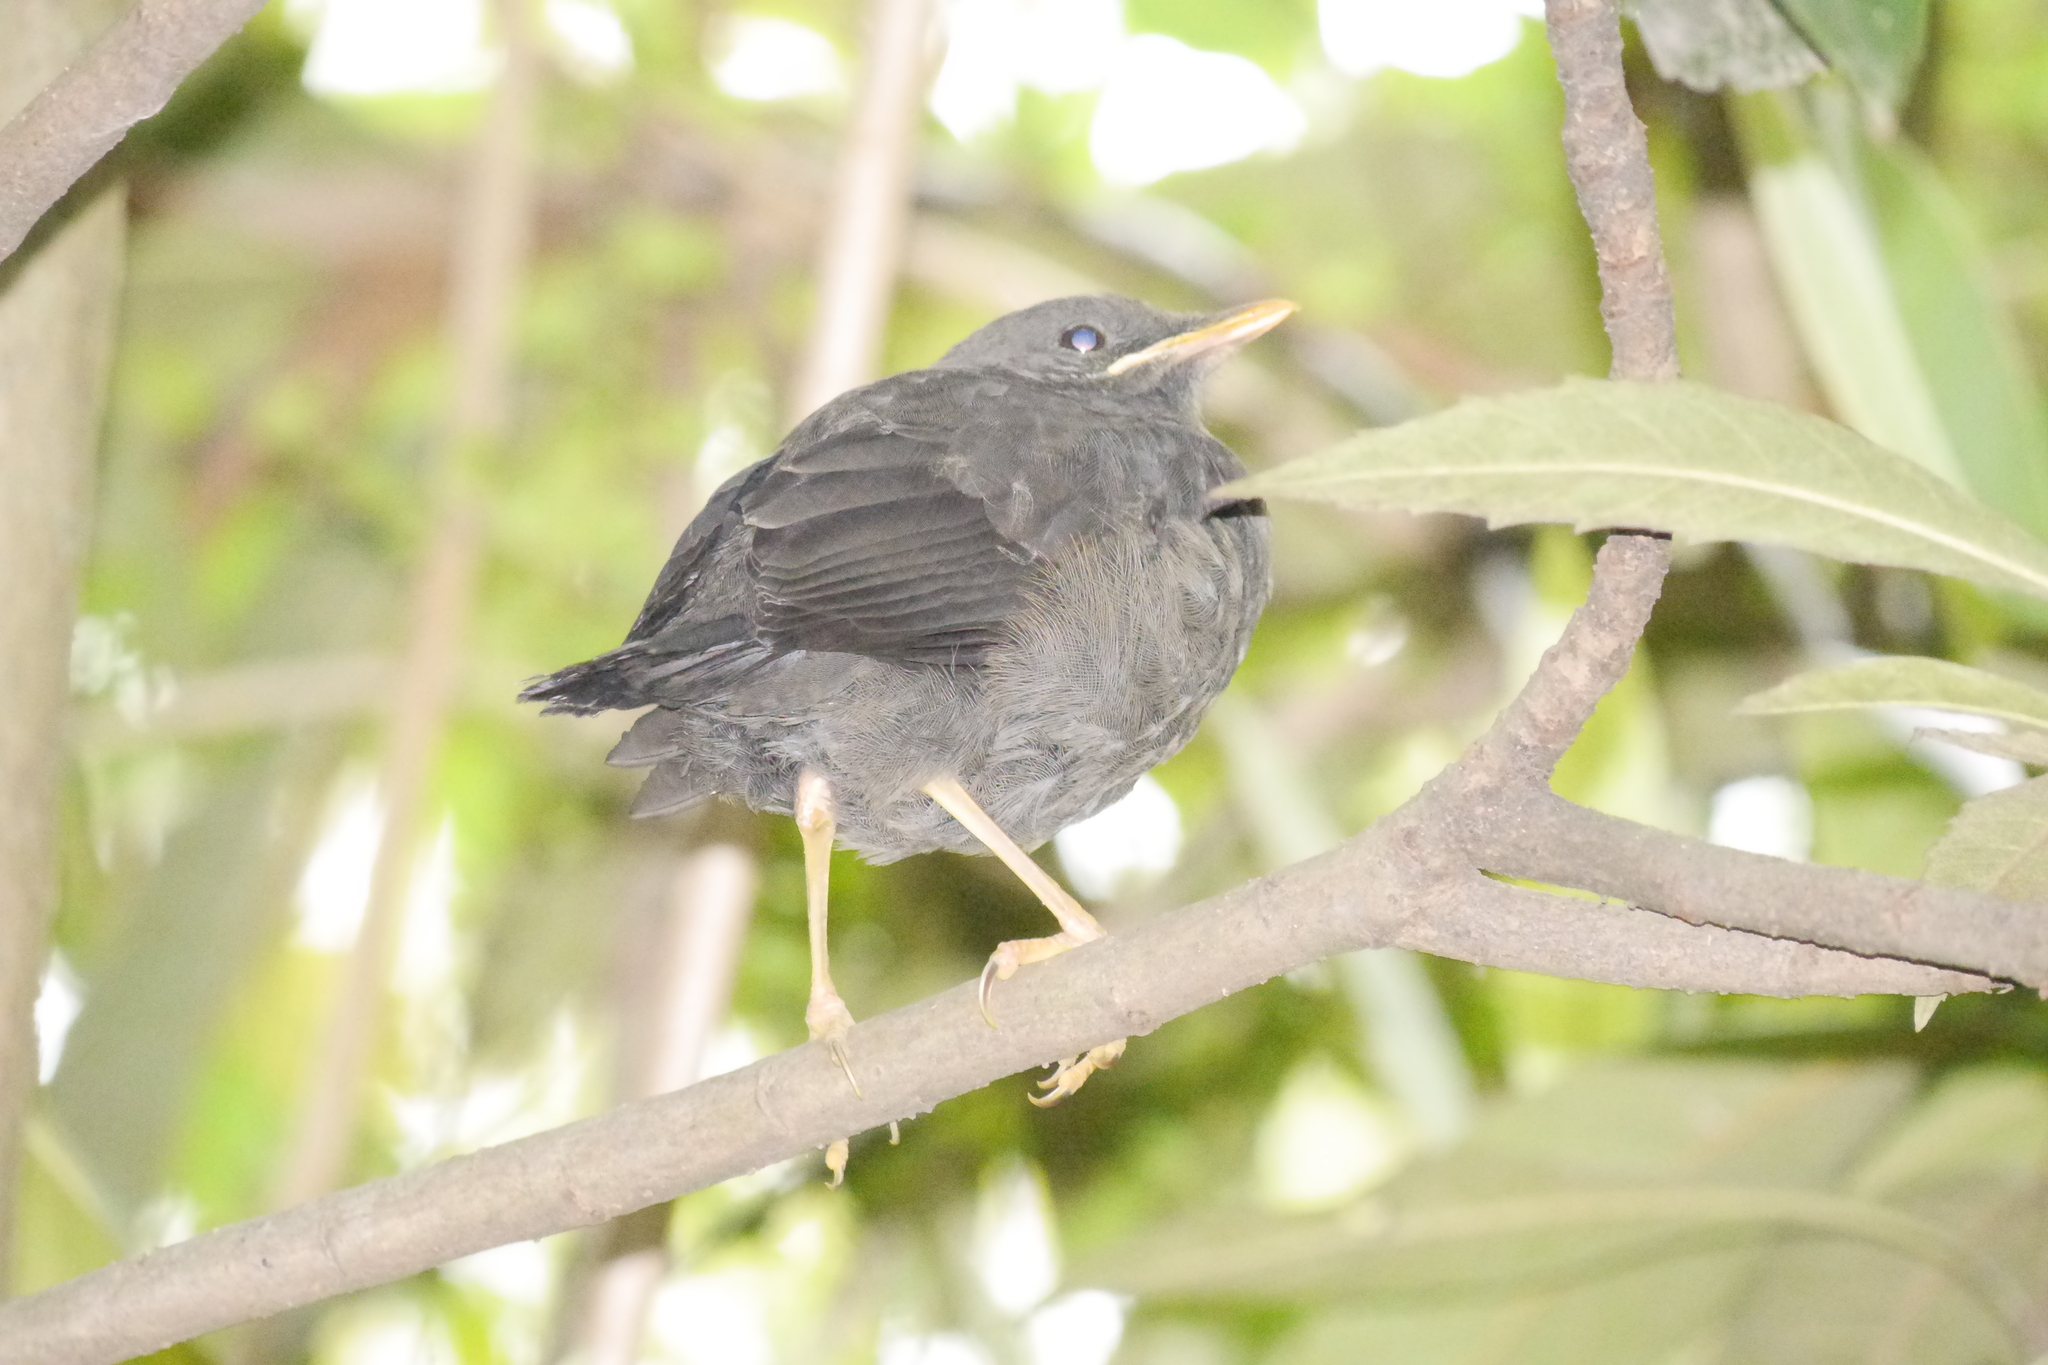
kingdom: Animalia
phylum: Chordata
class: Aves
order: Passeriformes
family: Turdidae
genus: Turdus
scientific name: Turdus fuscater
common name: Great thrush
